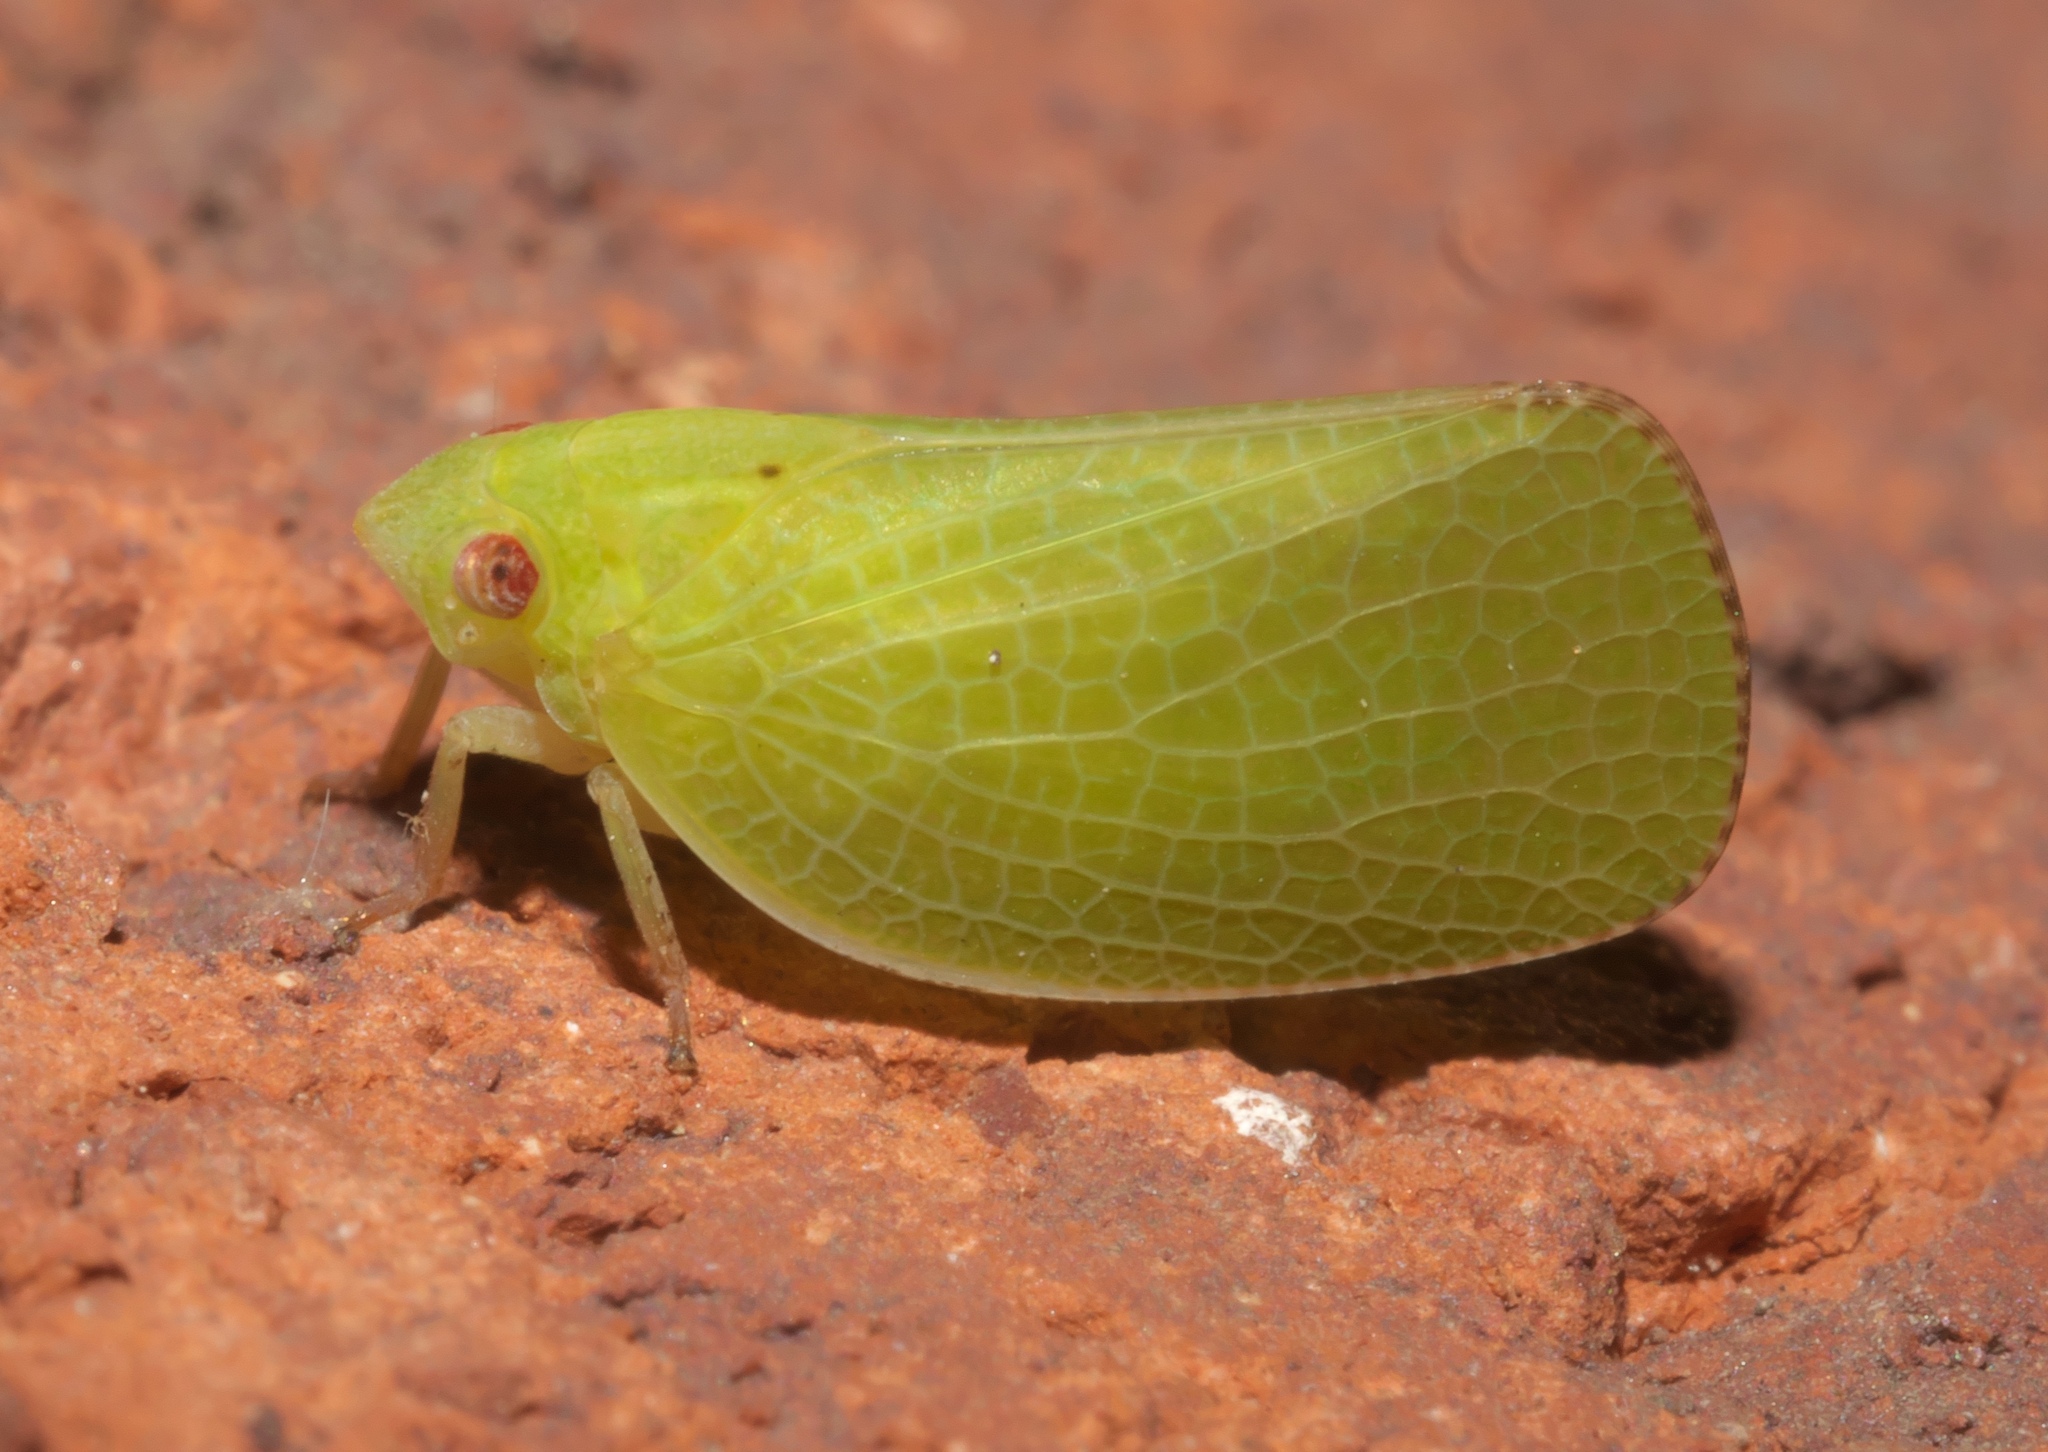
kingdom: Animalia
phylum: Arthropoda
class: Insecta
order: Hemiptera
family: Acanaloniidae
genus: Acanalonia
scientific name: Acanalonia conica
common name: Green cone-headed planthopper
